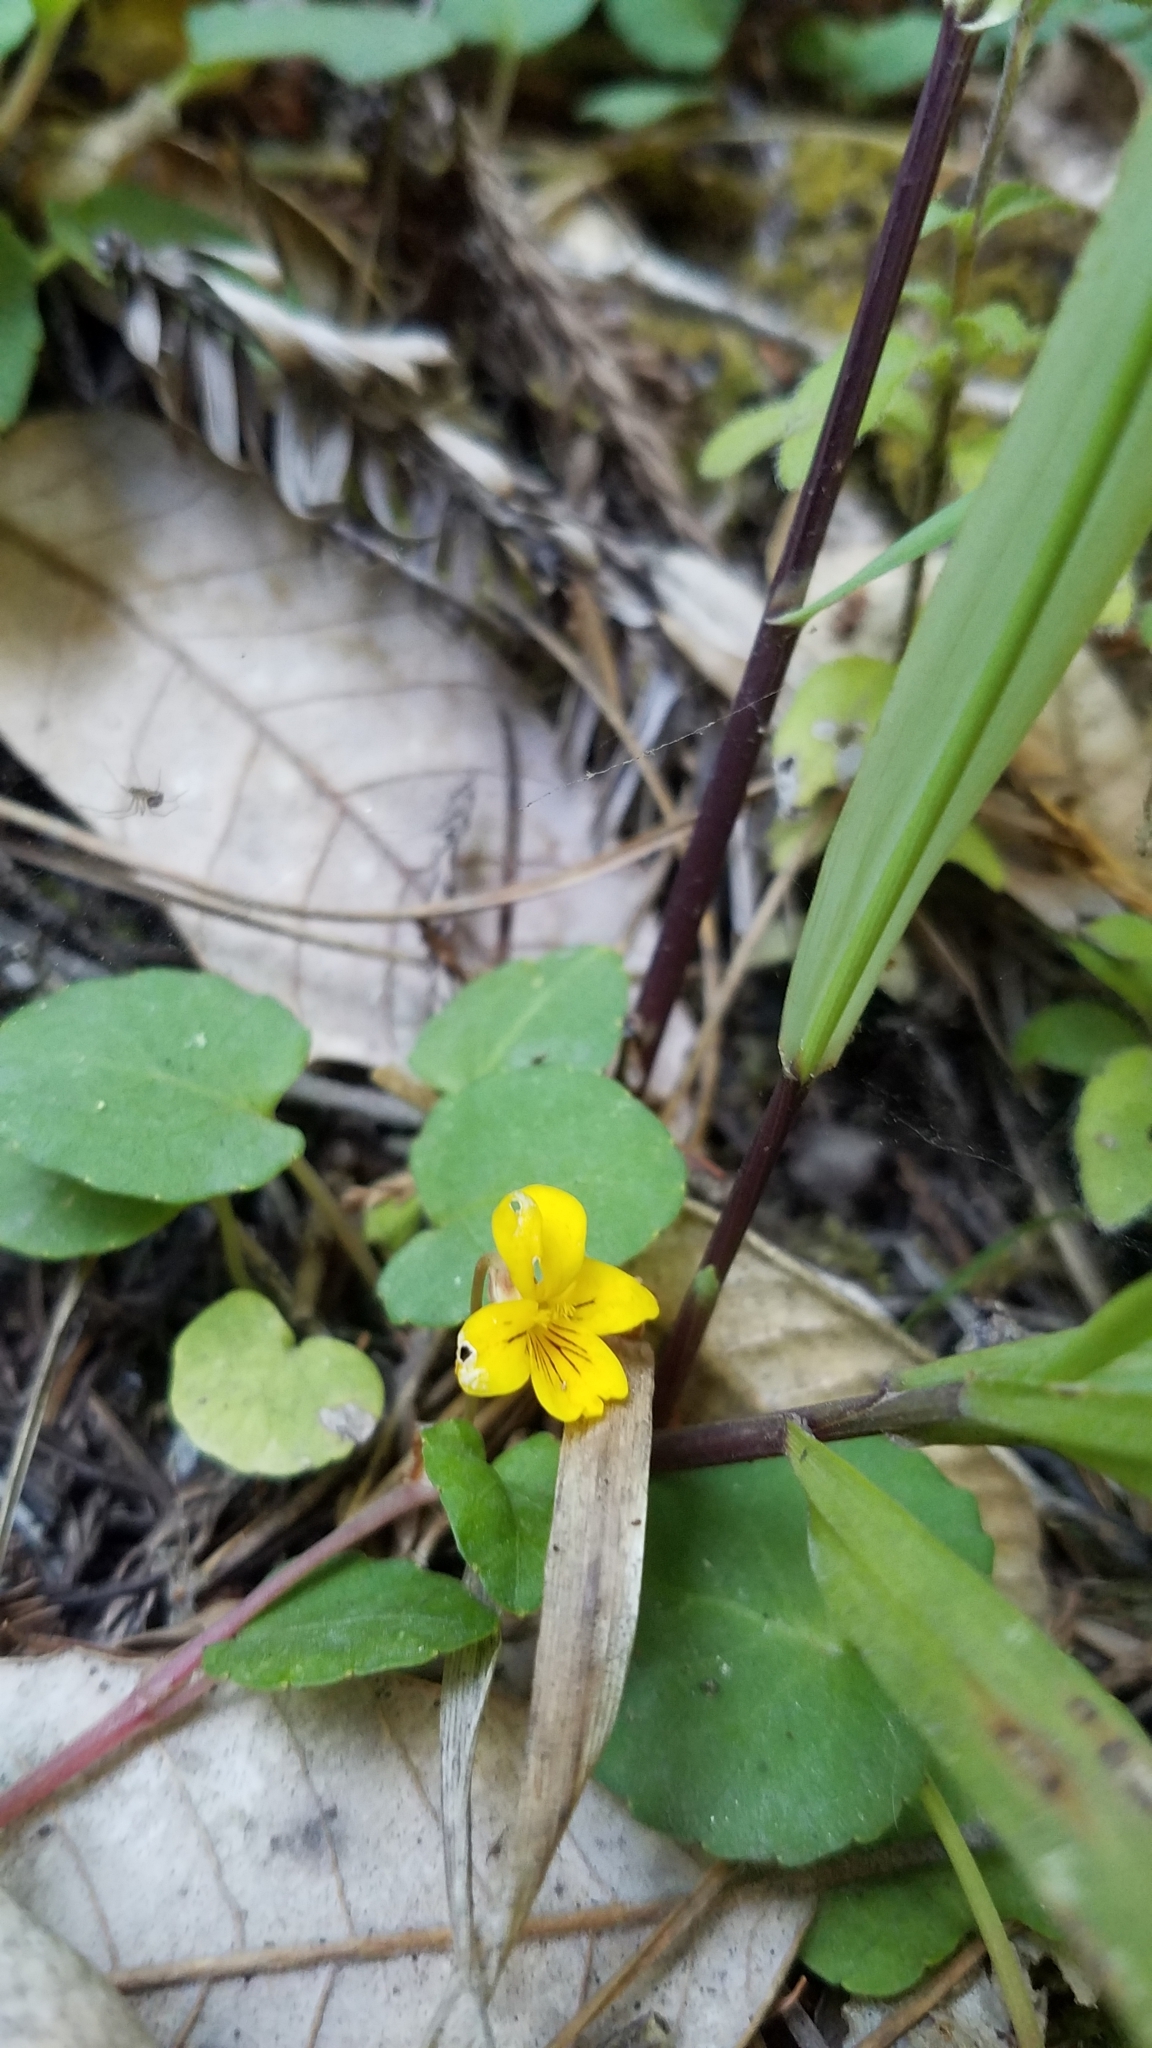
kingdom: Plantae
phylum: Tracheophyta
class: Magnoliopsida
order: Malpighiales
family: Violaceae
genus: Viola
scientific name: Viola sempervirens
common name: Evergreen violet
